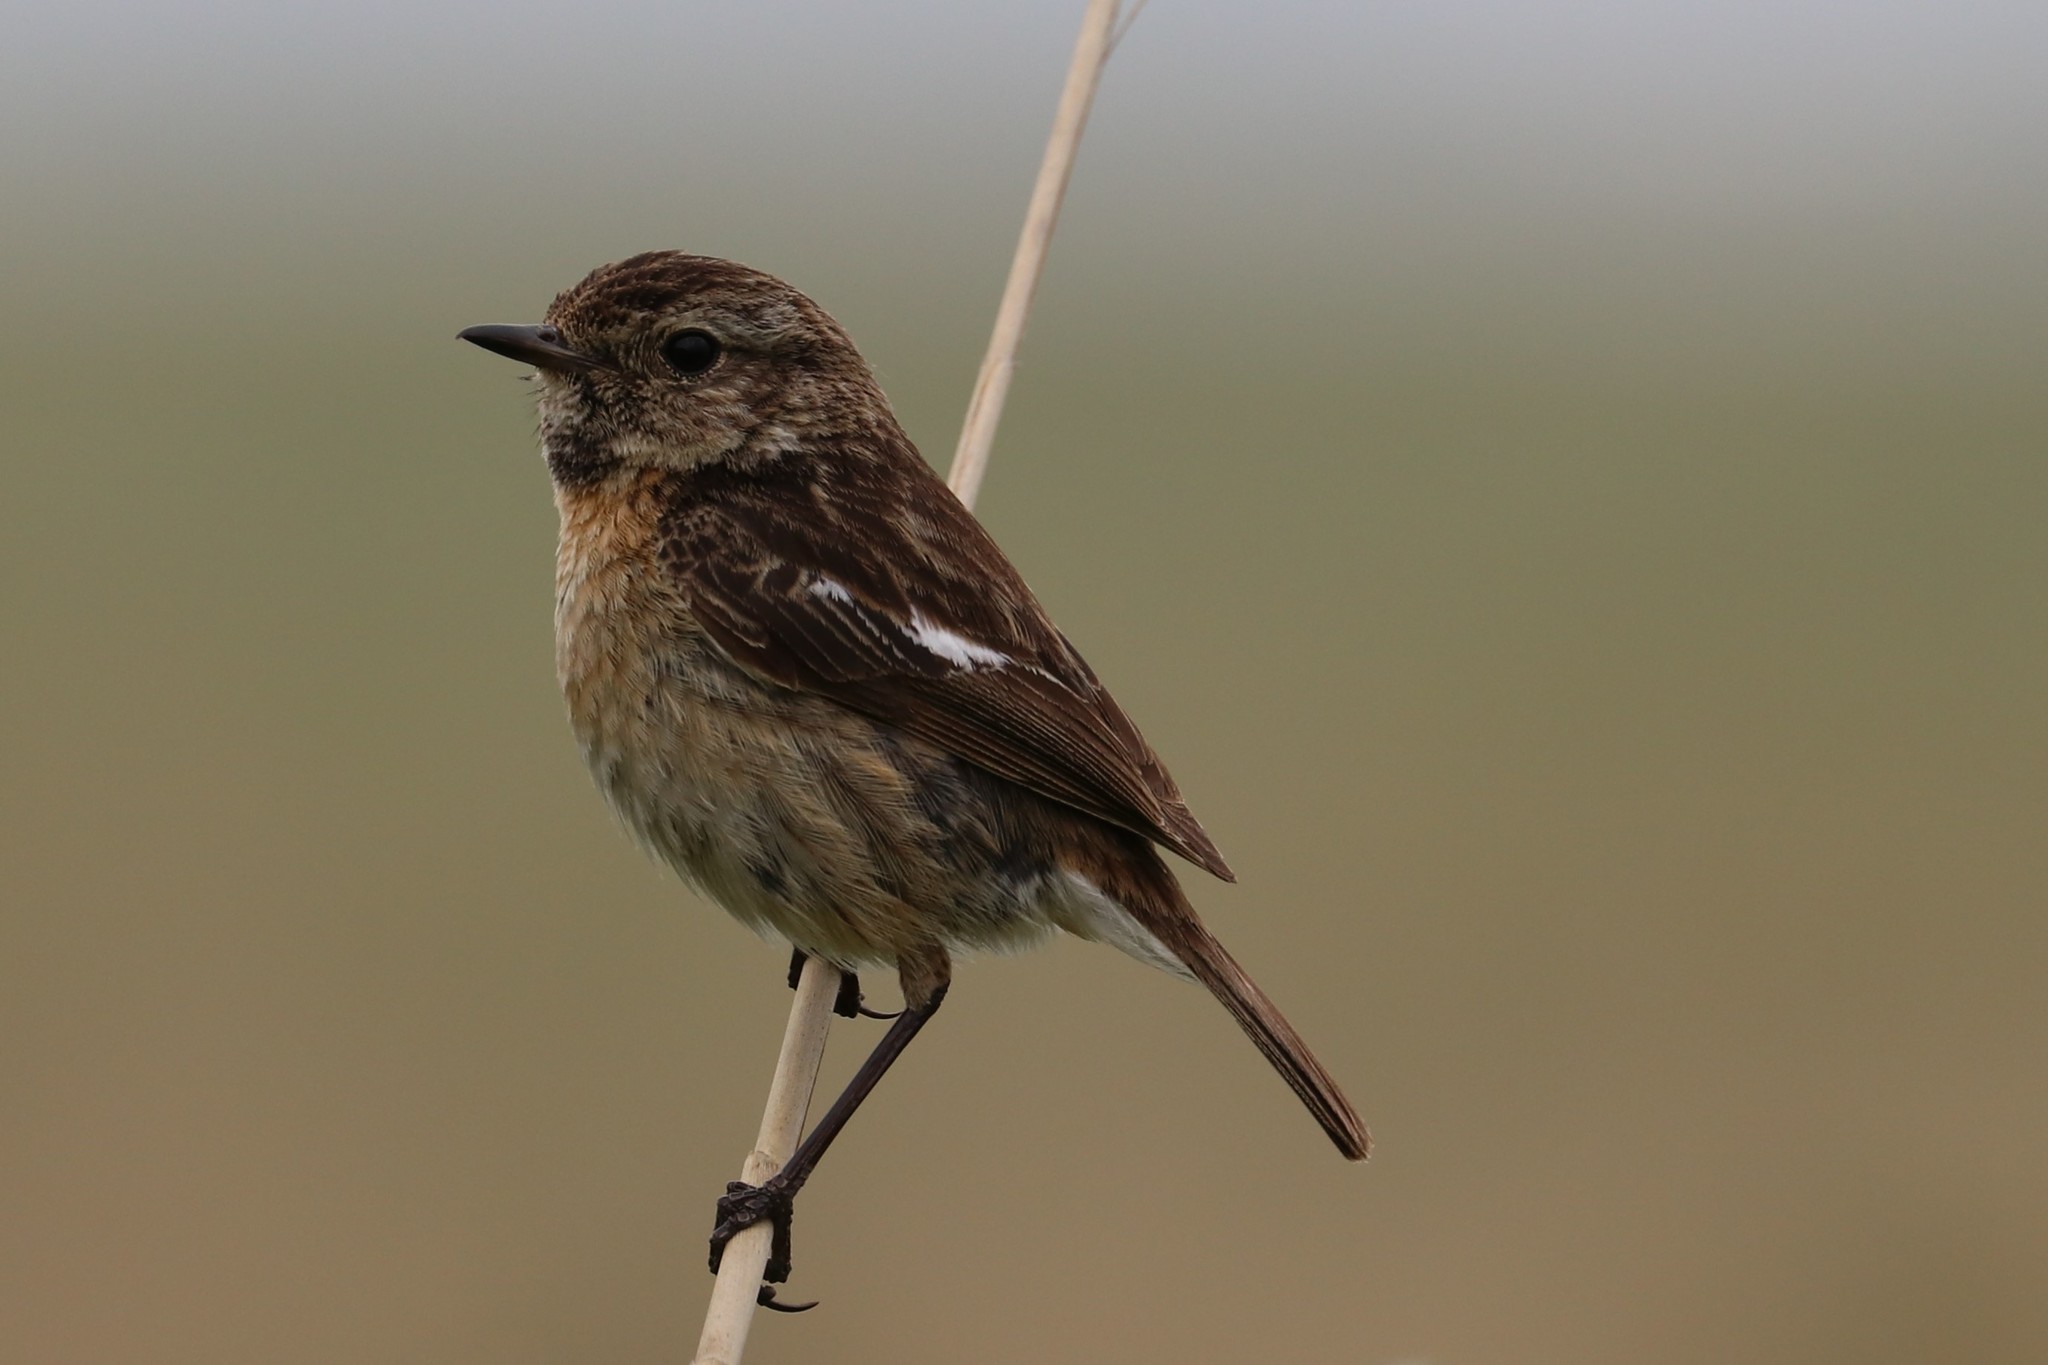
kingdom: Animalia
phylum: Chordata
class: Aves
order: Passeriformes
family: Muscicapidae
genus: Saxicola
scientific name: Saxicola rubicola
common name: European stonechat
